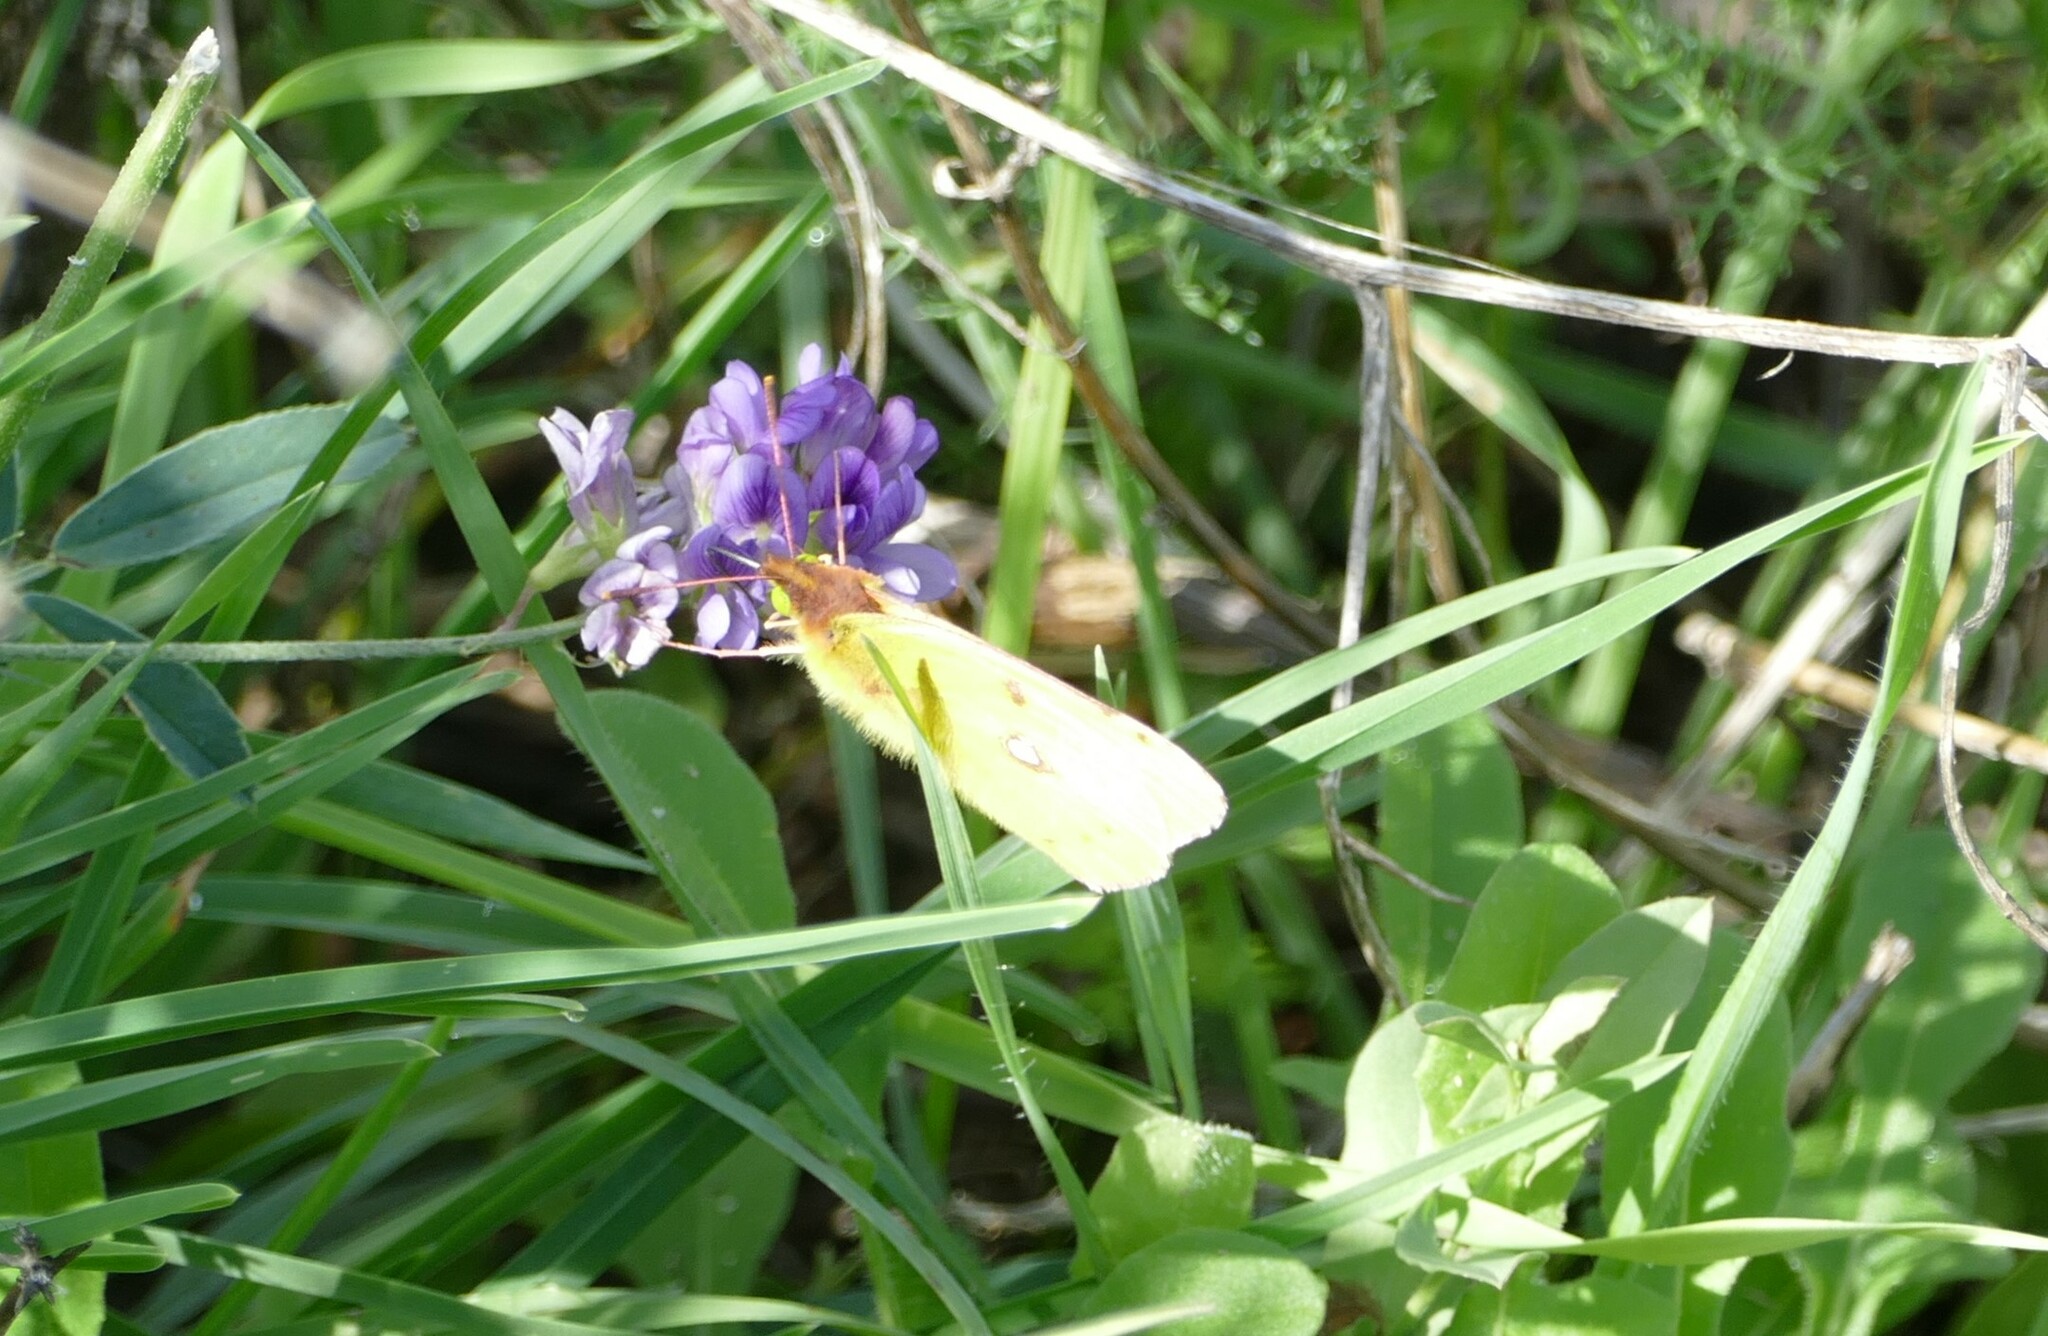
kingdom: Animalia
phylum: Arthropoda
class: Insecta
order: Lepidoptera
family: Pieridae
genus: Colias
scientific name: Colias croceus
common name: Clouded yellow
